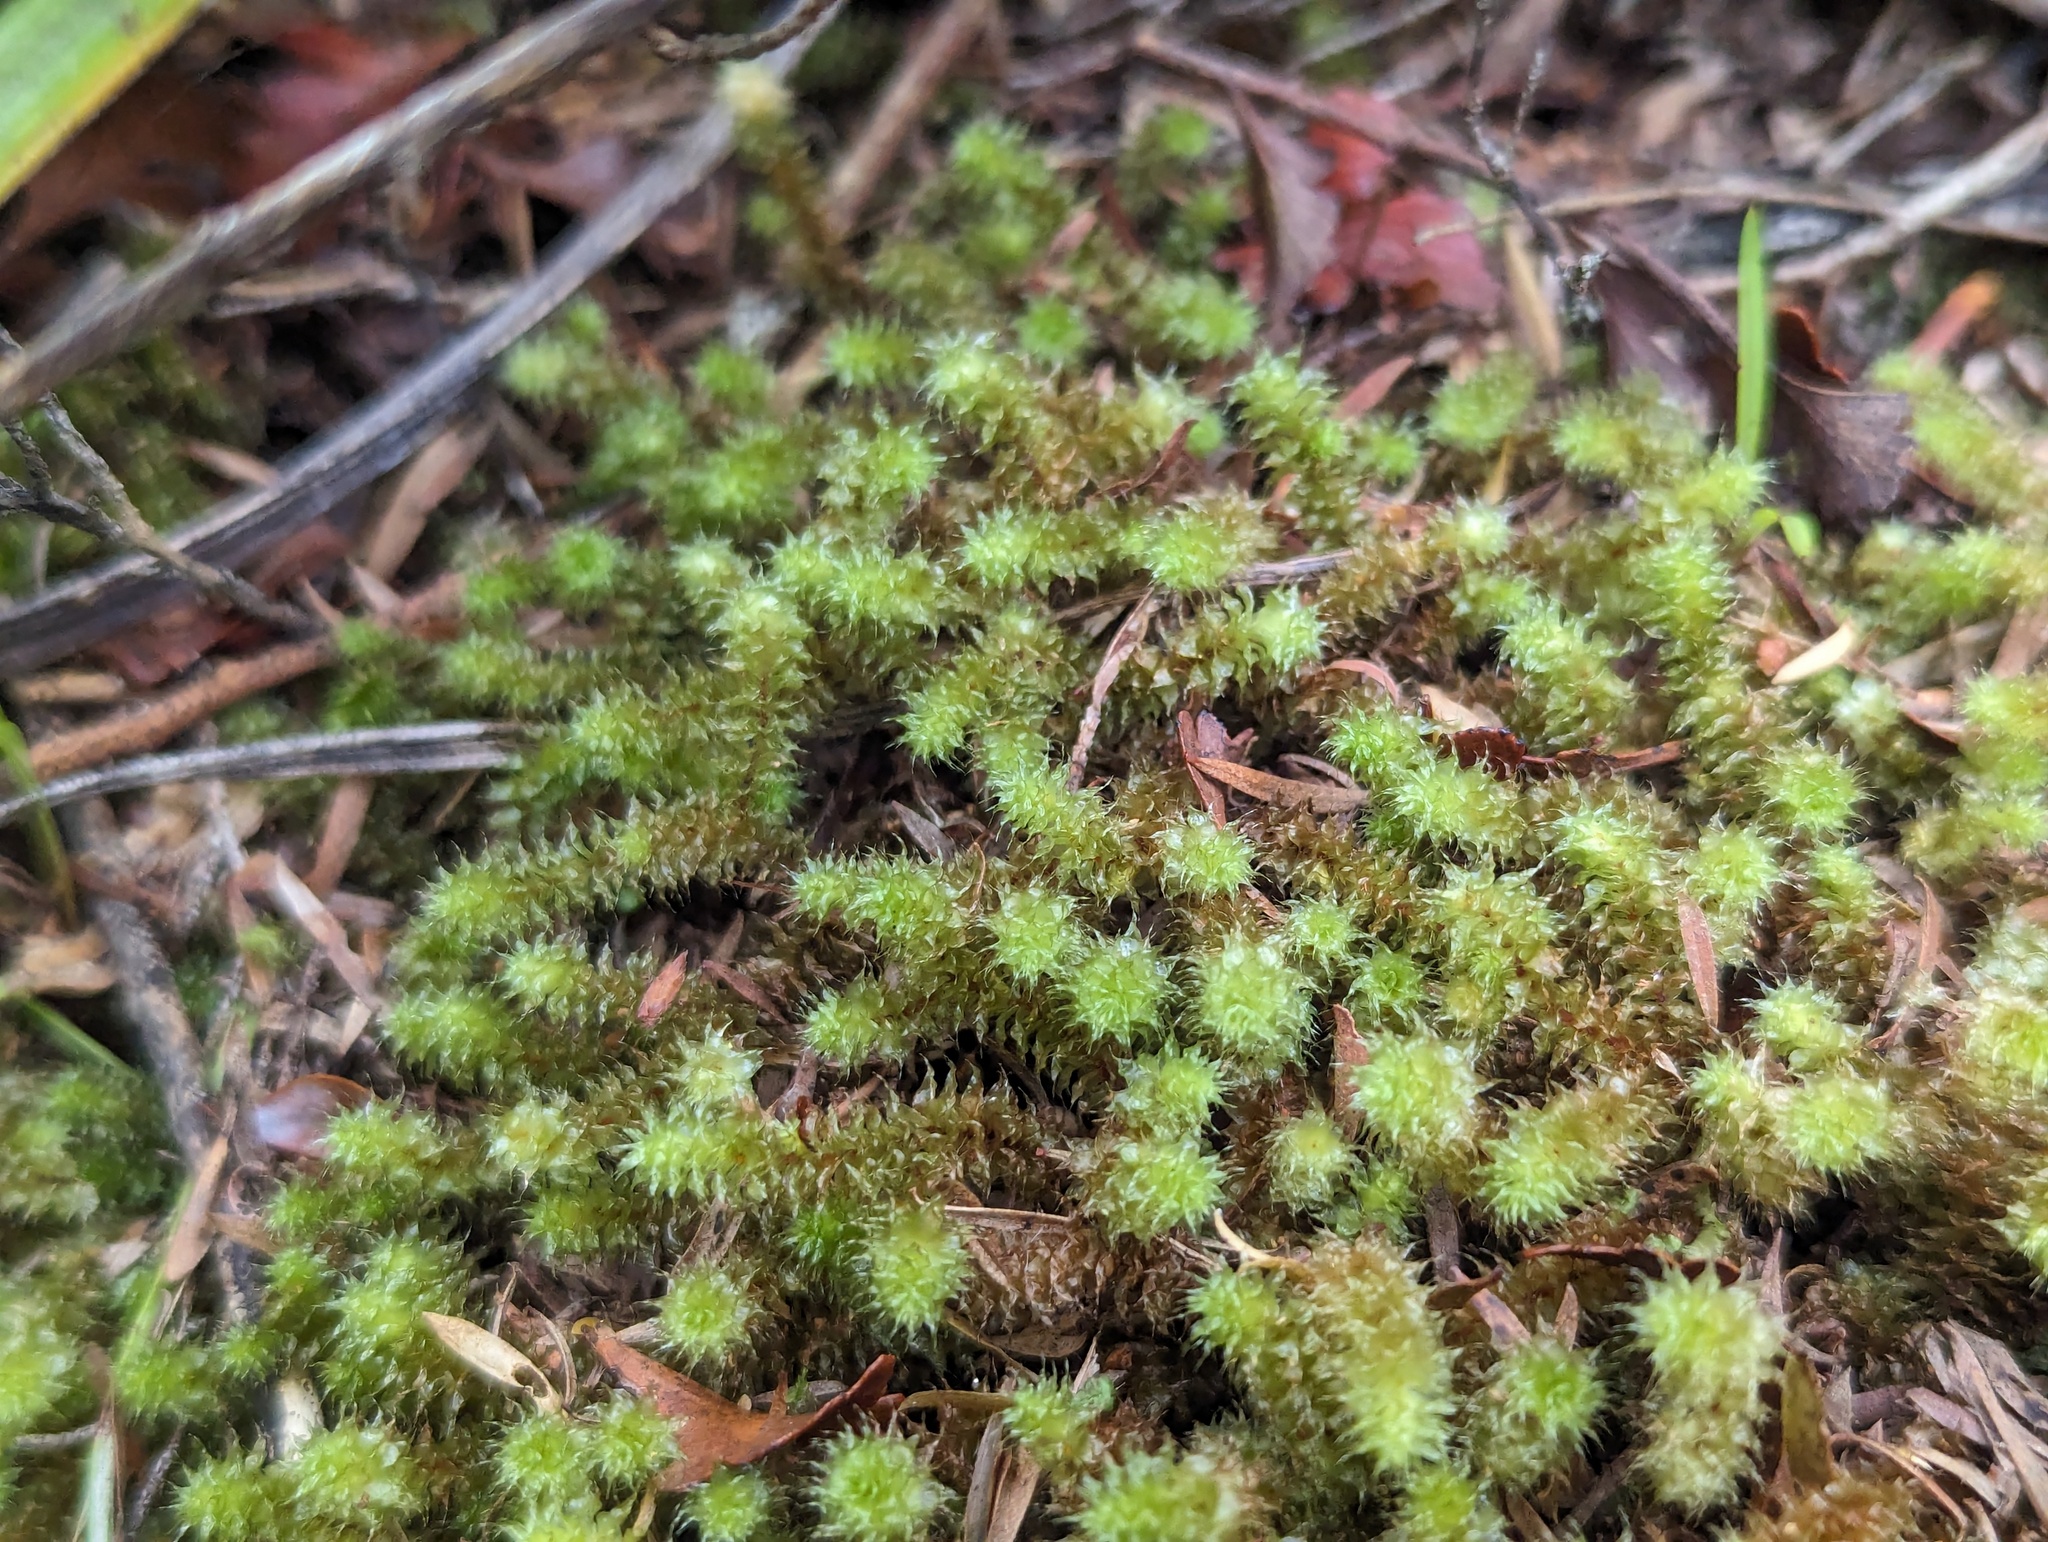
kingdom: Plantae
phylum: Bryophyta
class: Bryopsida
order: Ptychomniales
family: Ptychomniaceae
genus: Ptychomnion
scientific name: Ptychomnion aciculare
